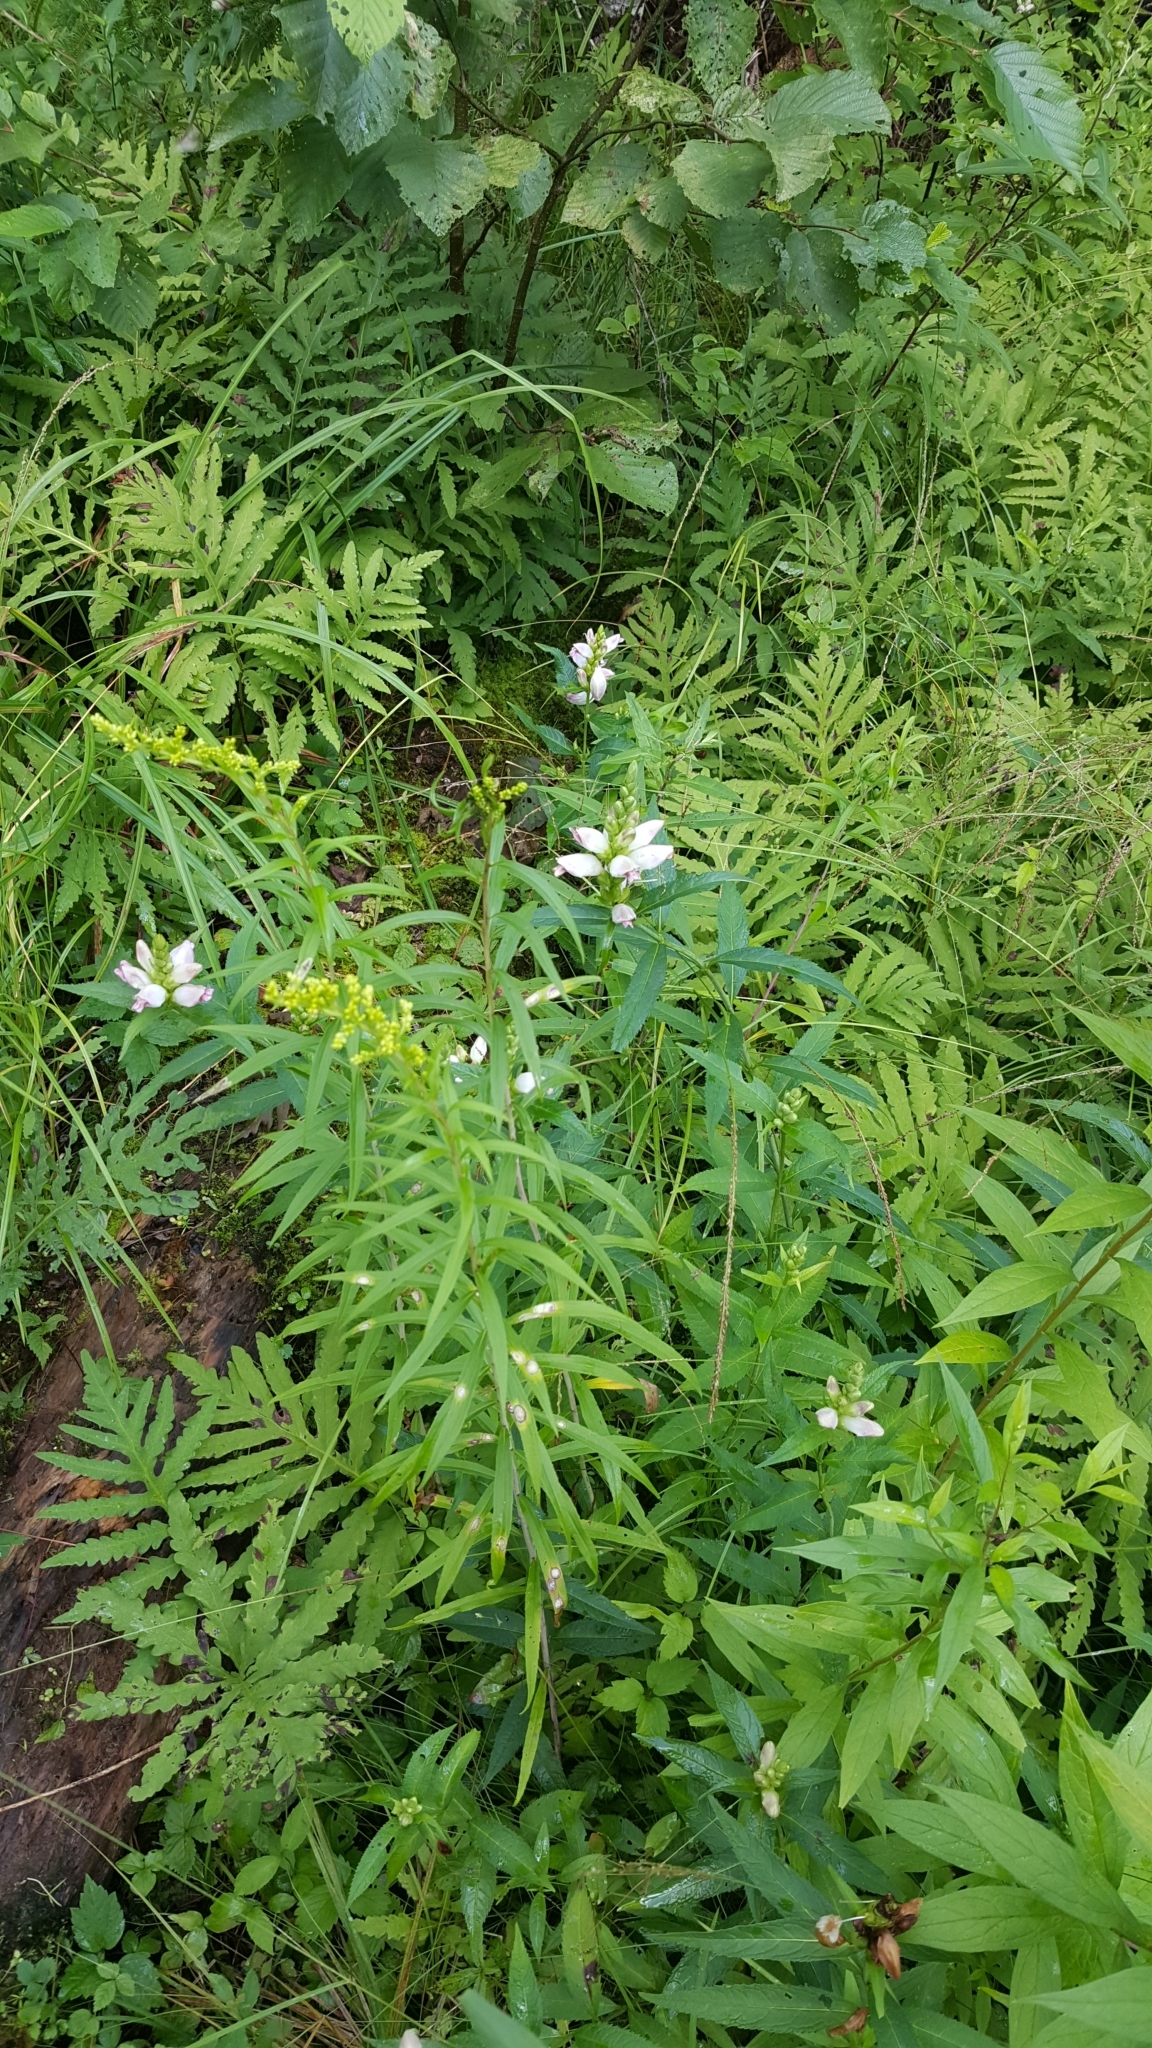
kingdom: Plantae
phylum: Tracheophyta
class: Magnoliopsida
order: Lamiales
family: Plantaginaceae
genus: Chelone
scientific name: Chelone glabra
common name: Snakehead
